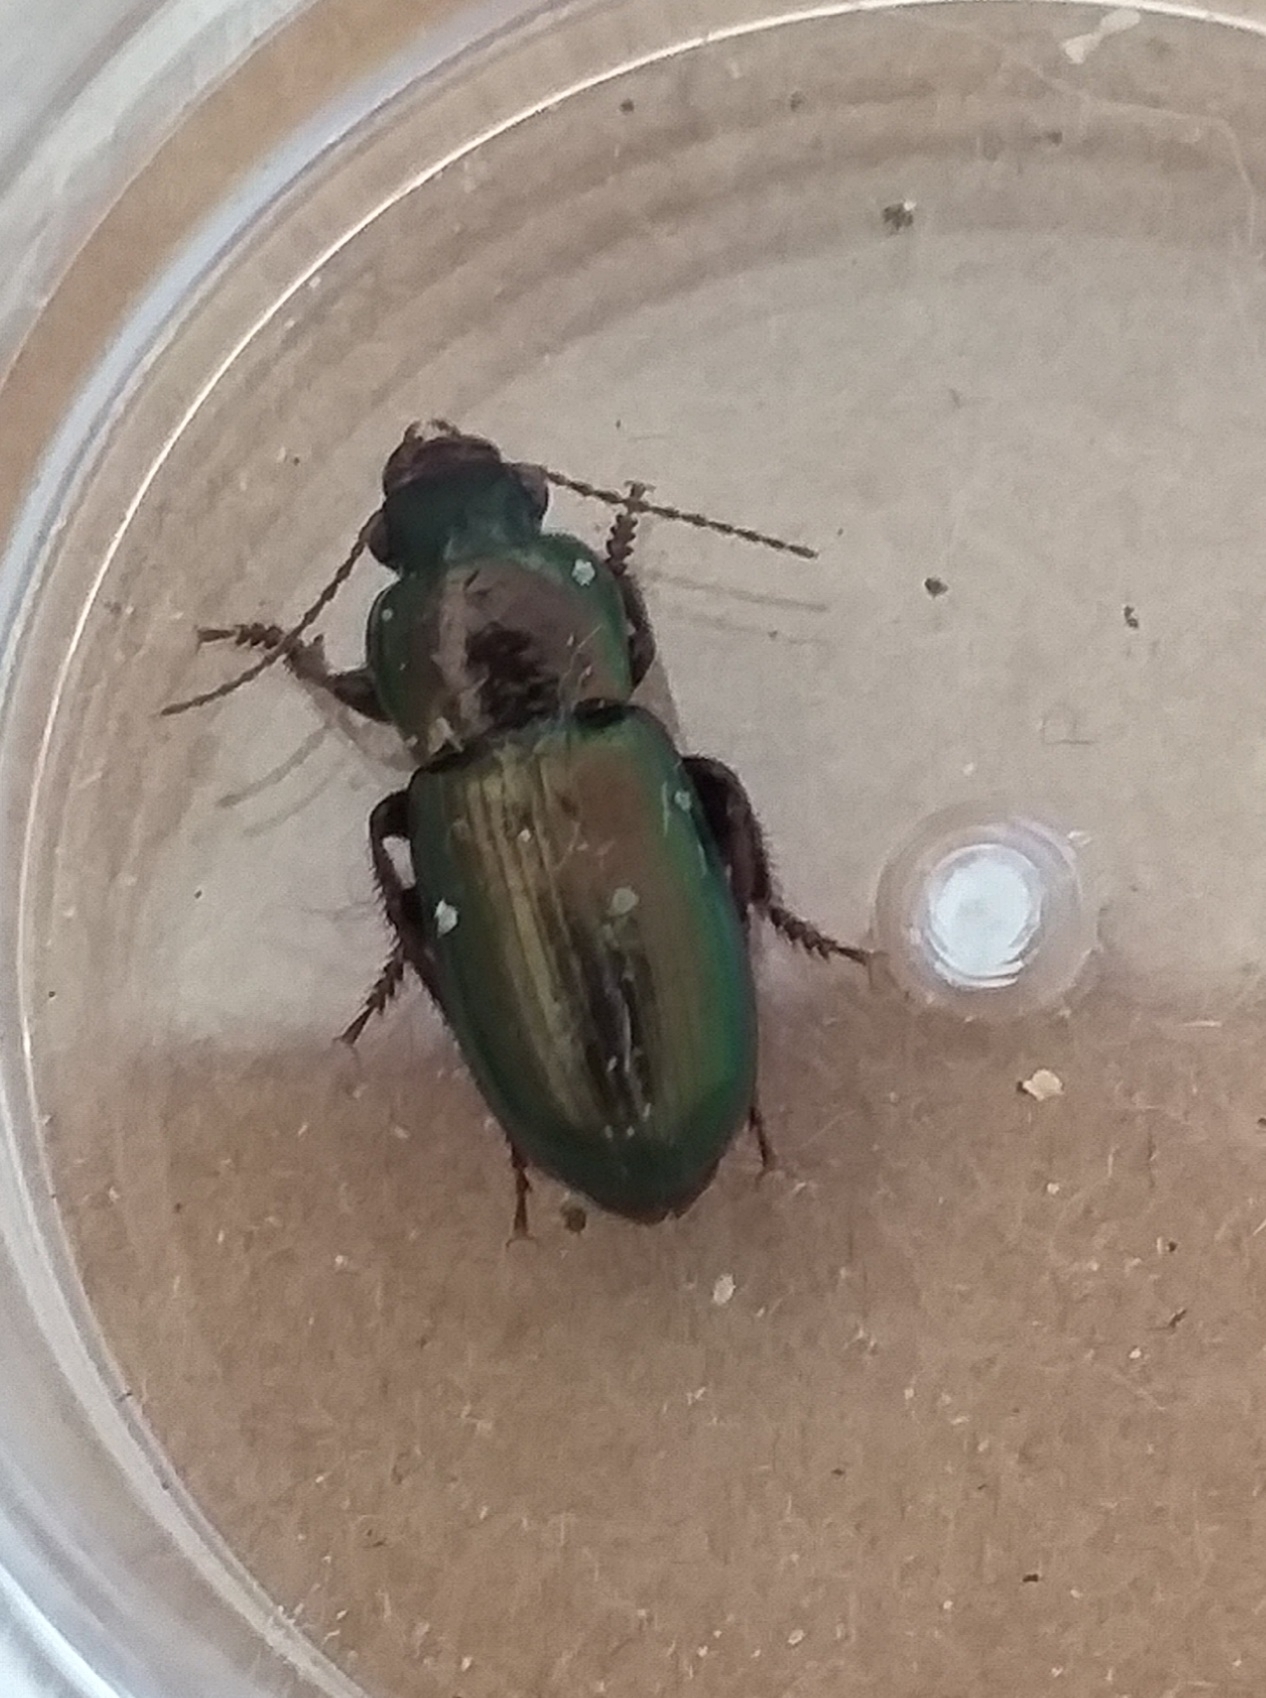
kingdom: Animalia
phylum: Arthropoda
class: Insecta
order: Coleoptera
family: Carabidae
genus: Harpalus
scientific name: Harpalus distinguendus
